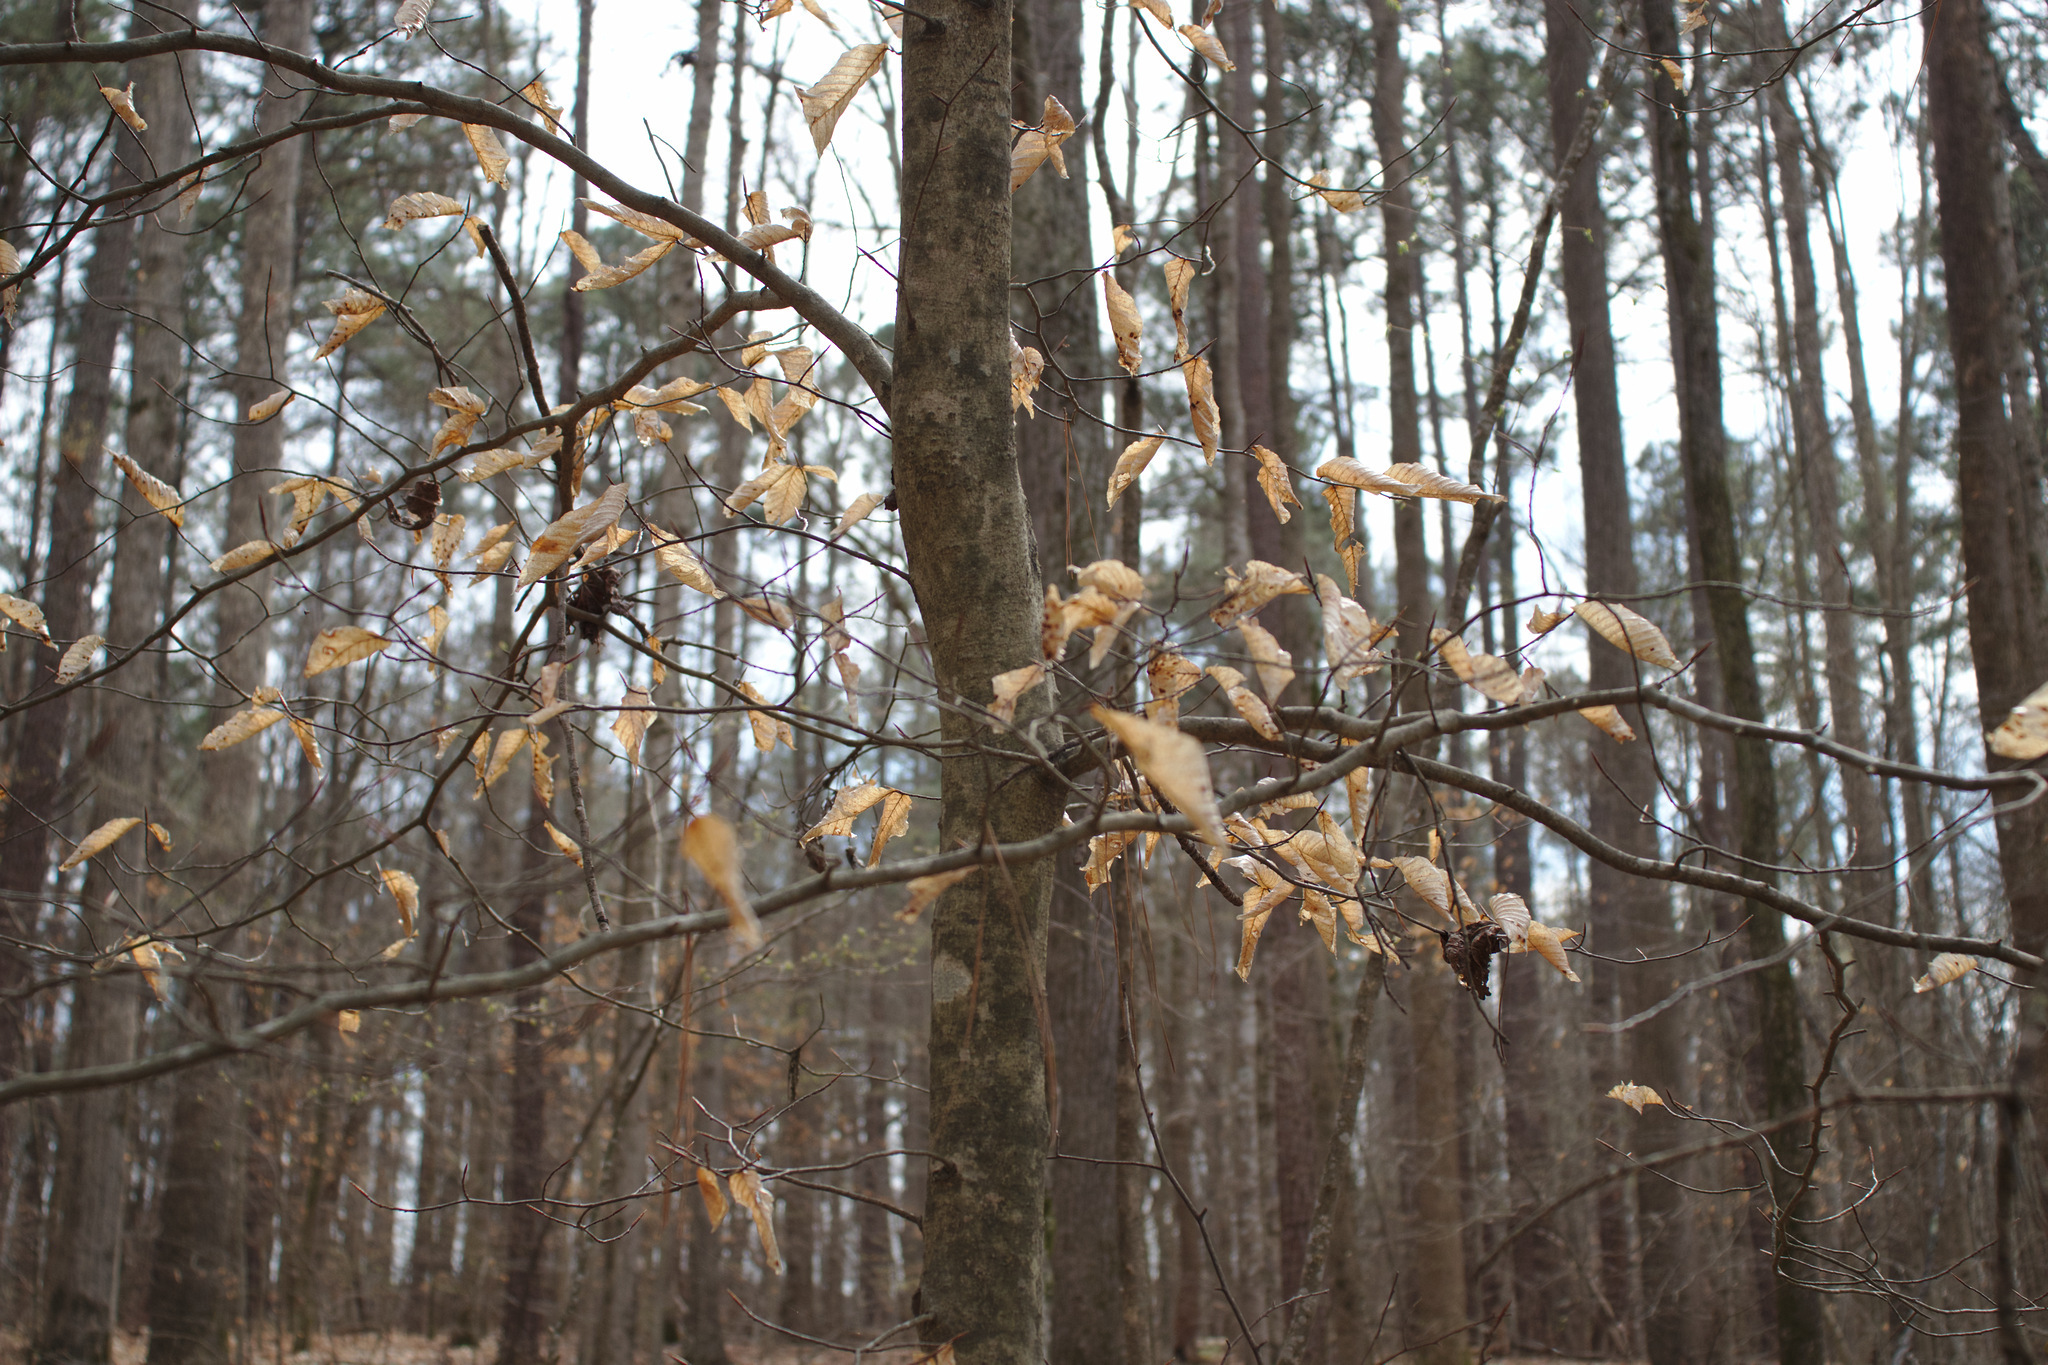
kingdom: Plantae
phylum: Tracheophyta
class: Magnoliopsida
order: Fagales
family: Fagaceae
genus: Fagus
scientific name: Fagus grandifolia
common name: American beech
